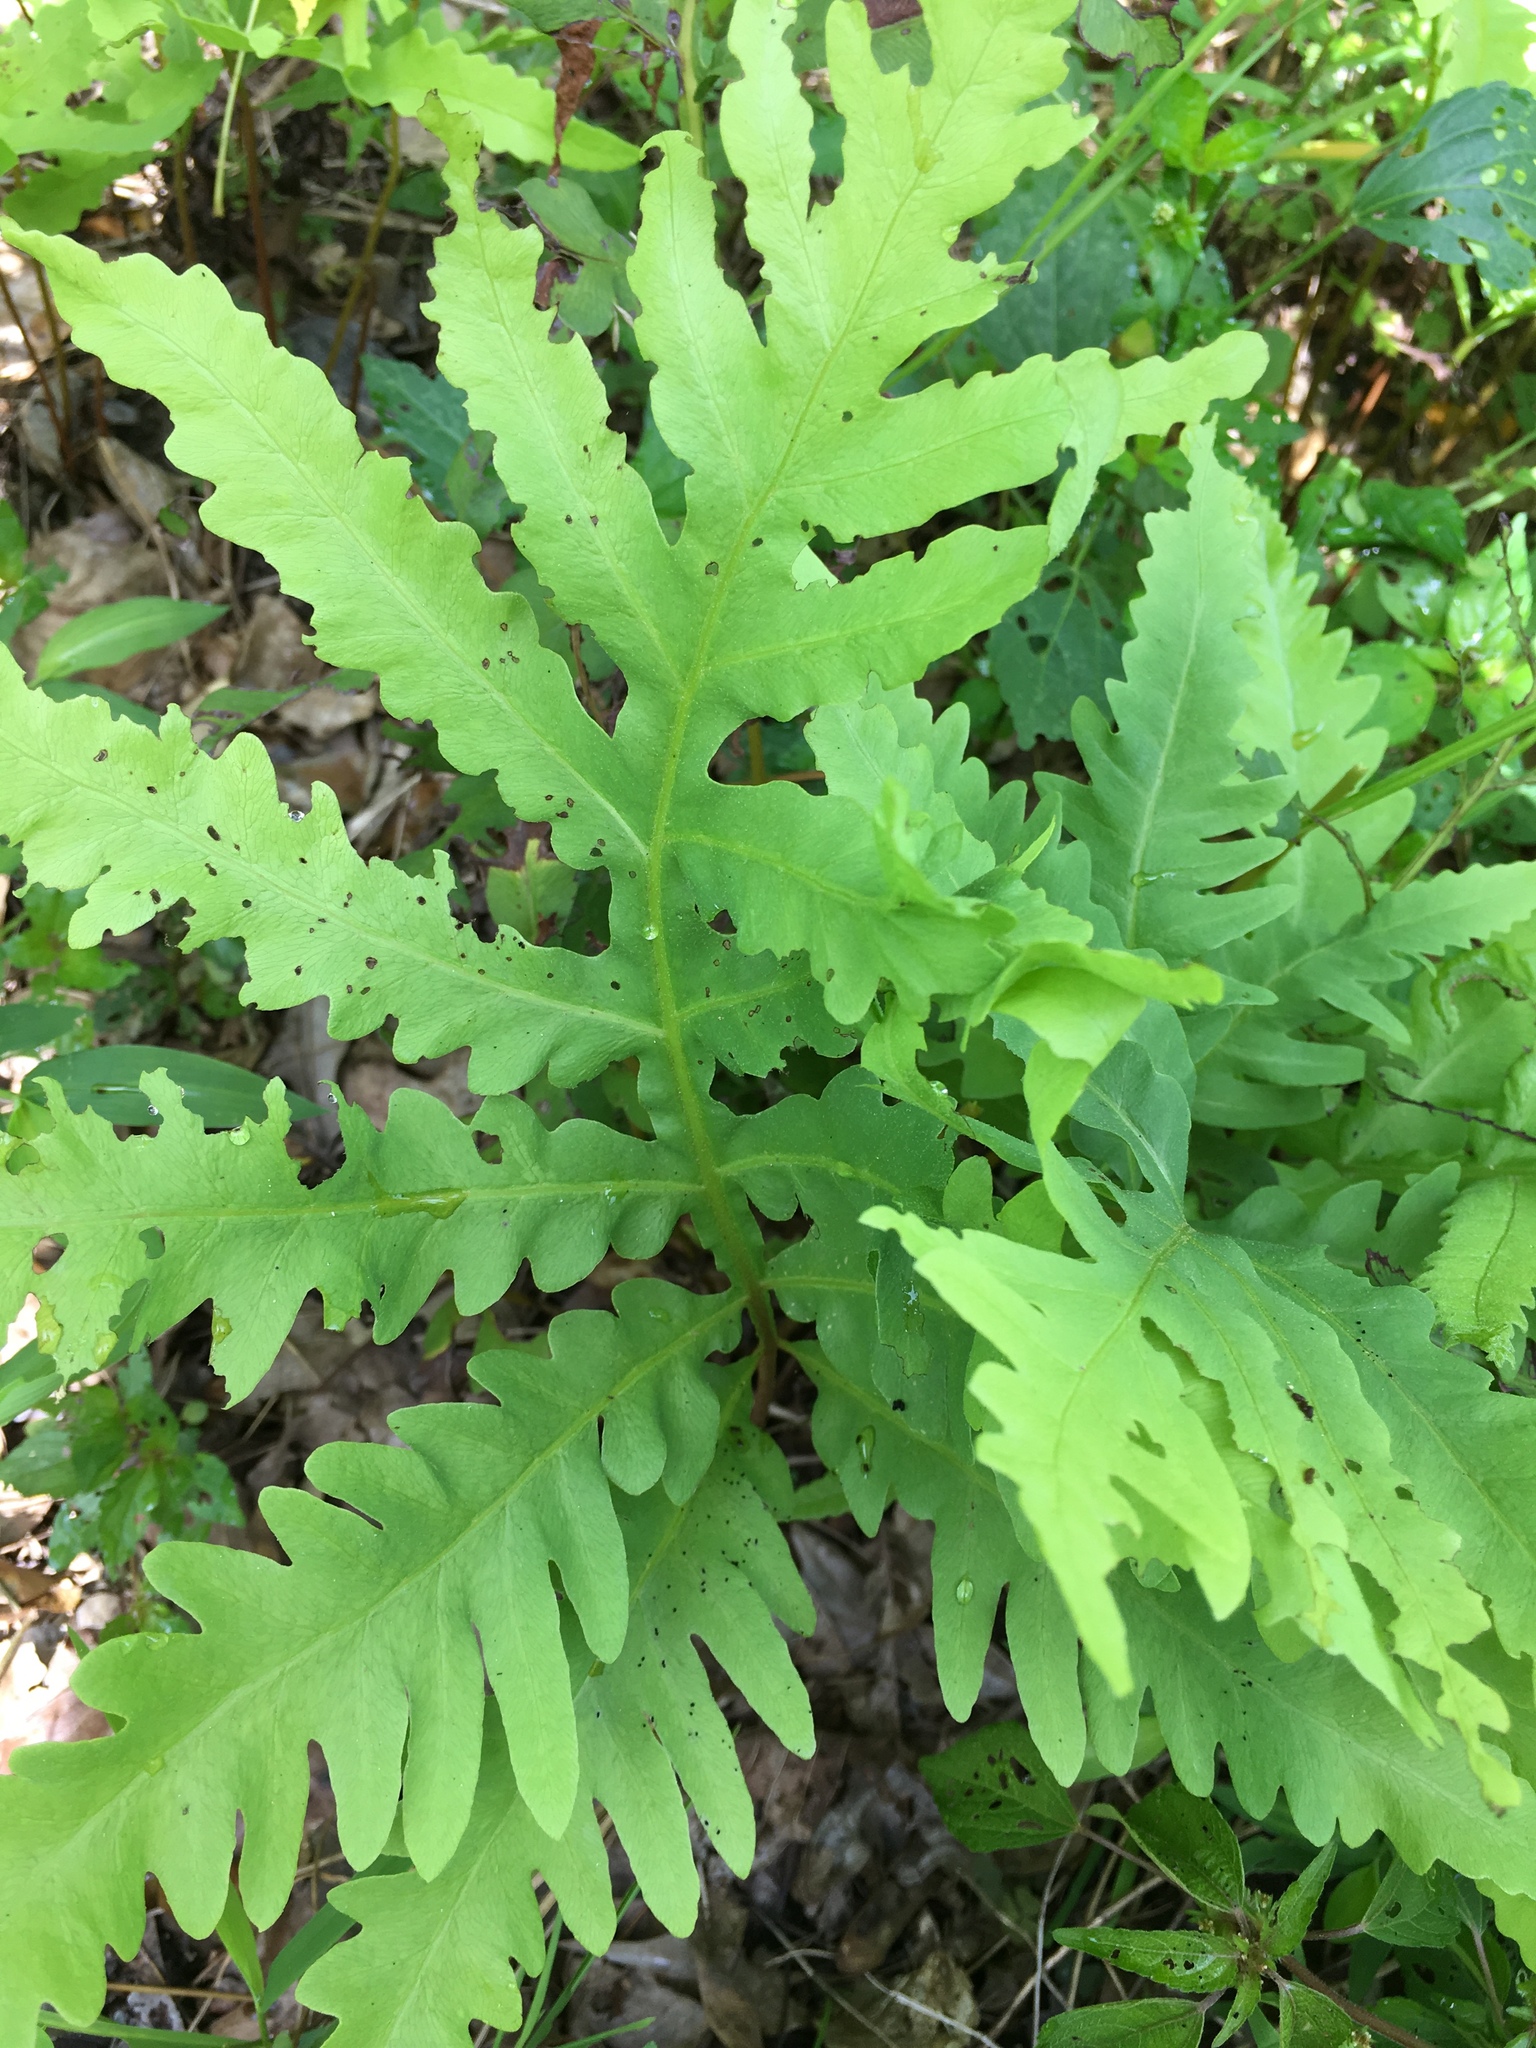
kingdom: Plantae
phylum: Tracheophyta
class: Polypodiopsida
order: Polypodiales
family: Onocleaceae
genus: Onoclea
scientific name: Onoclea sensibilis
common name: Sensitive fern
